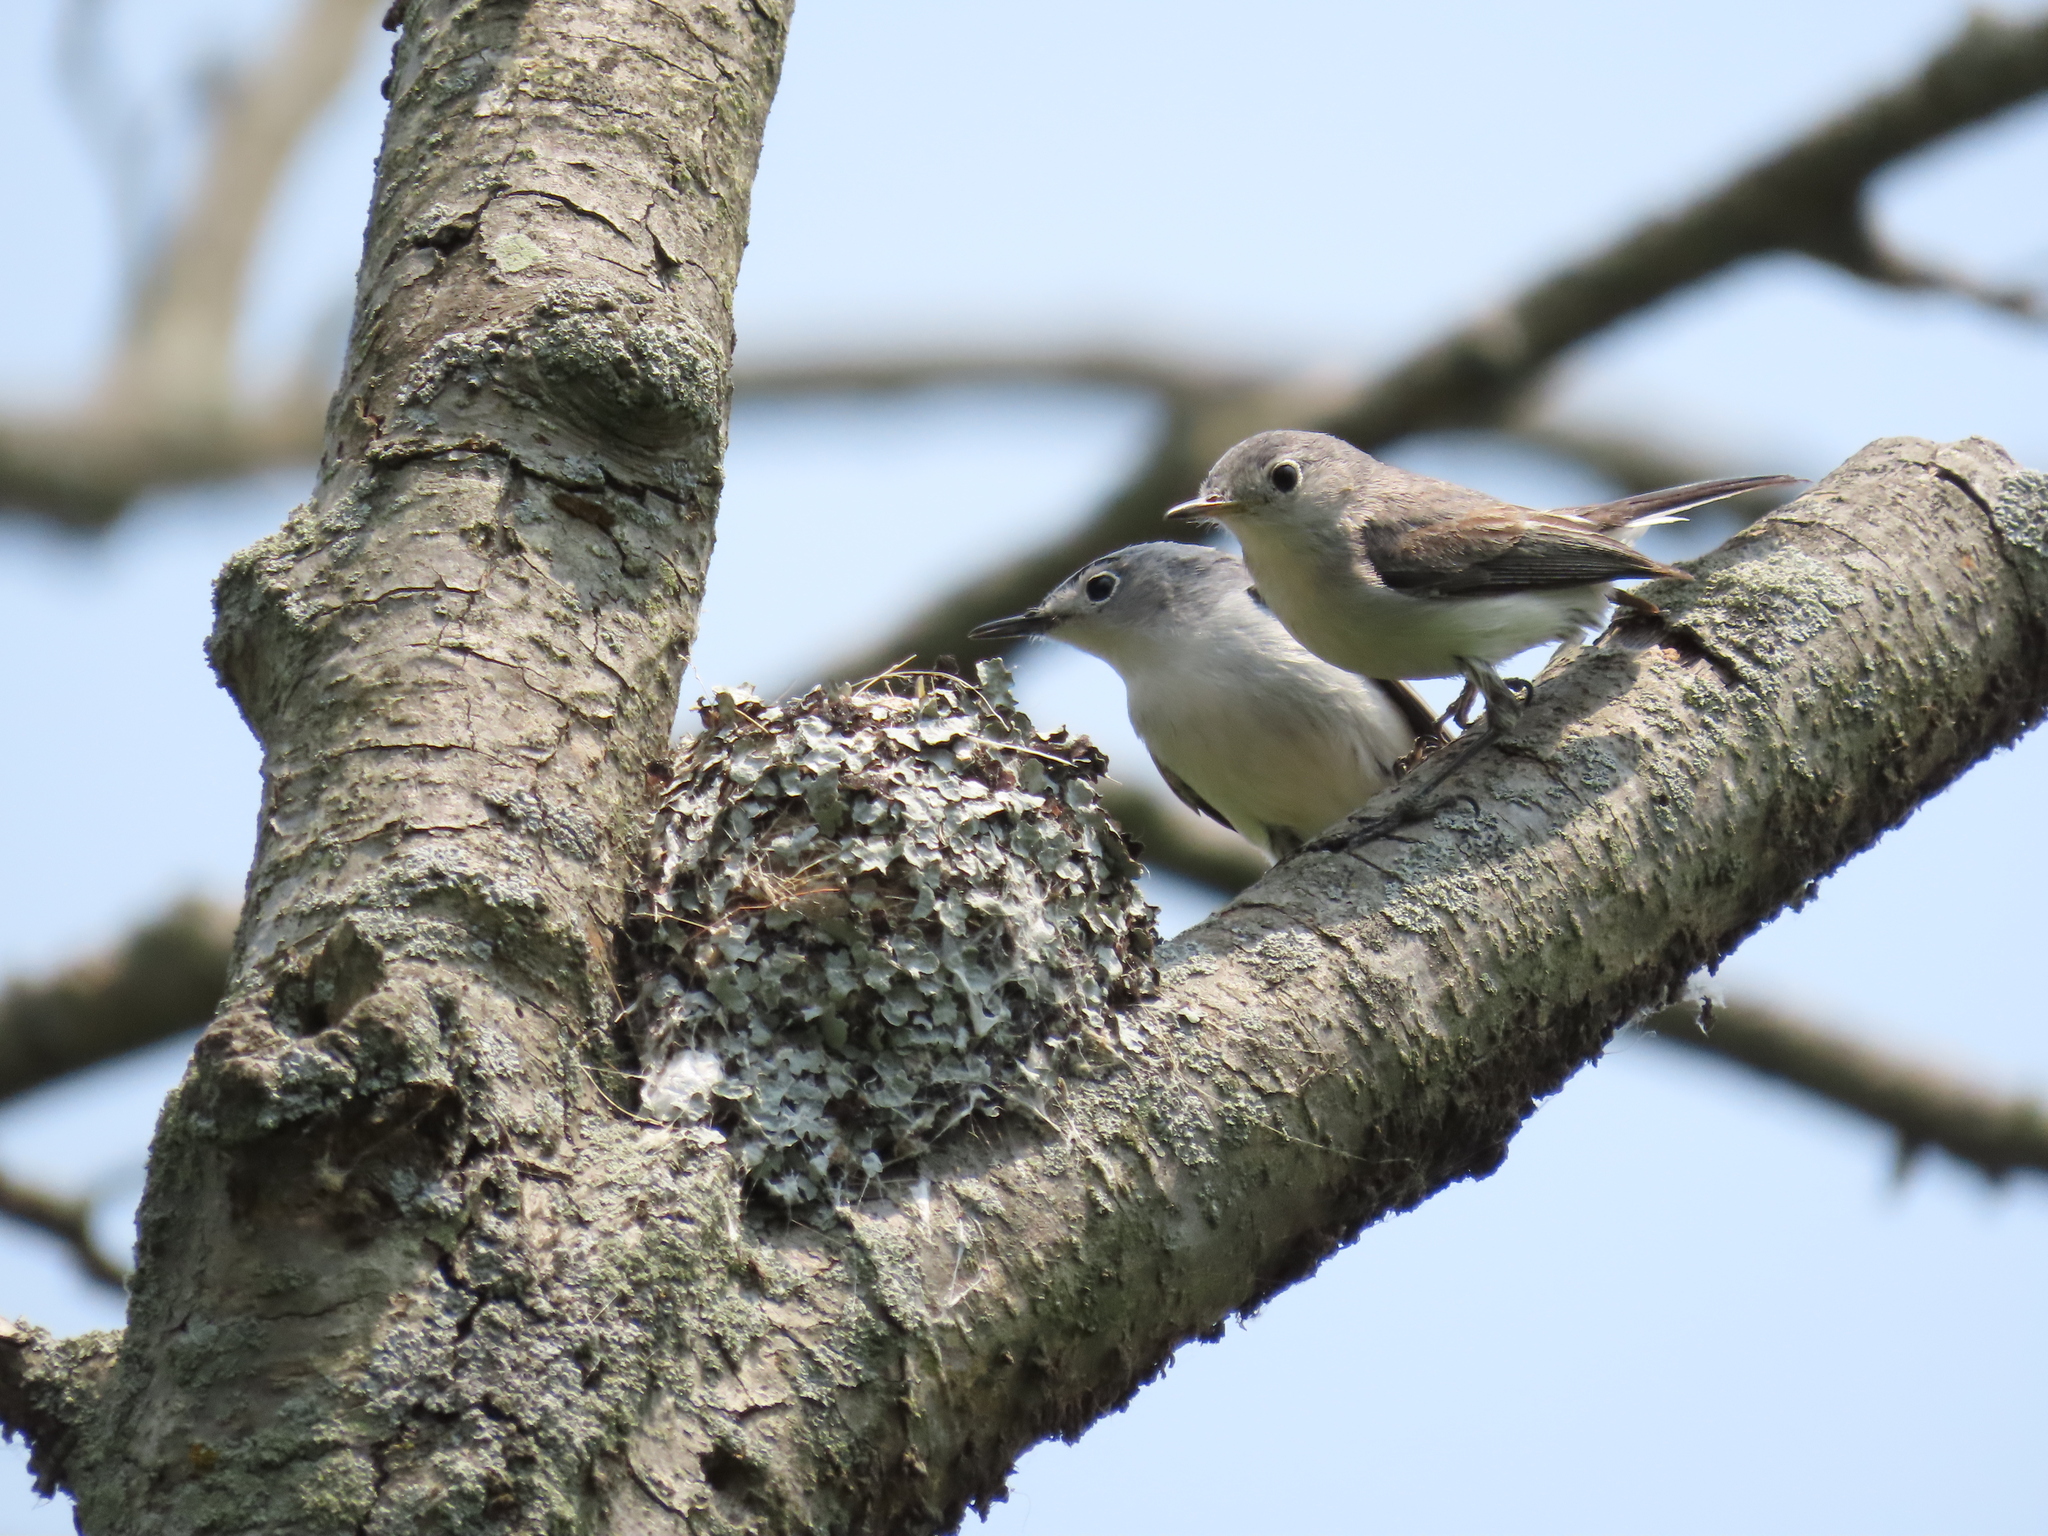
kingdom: Animalia
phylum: Chordata
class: Aves
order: Passeriformes
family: Polioptilidae
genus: Polioptila
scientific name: Polioptila caerulea
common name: Blue-gray gnatcatcher
